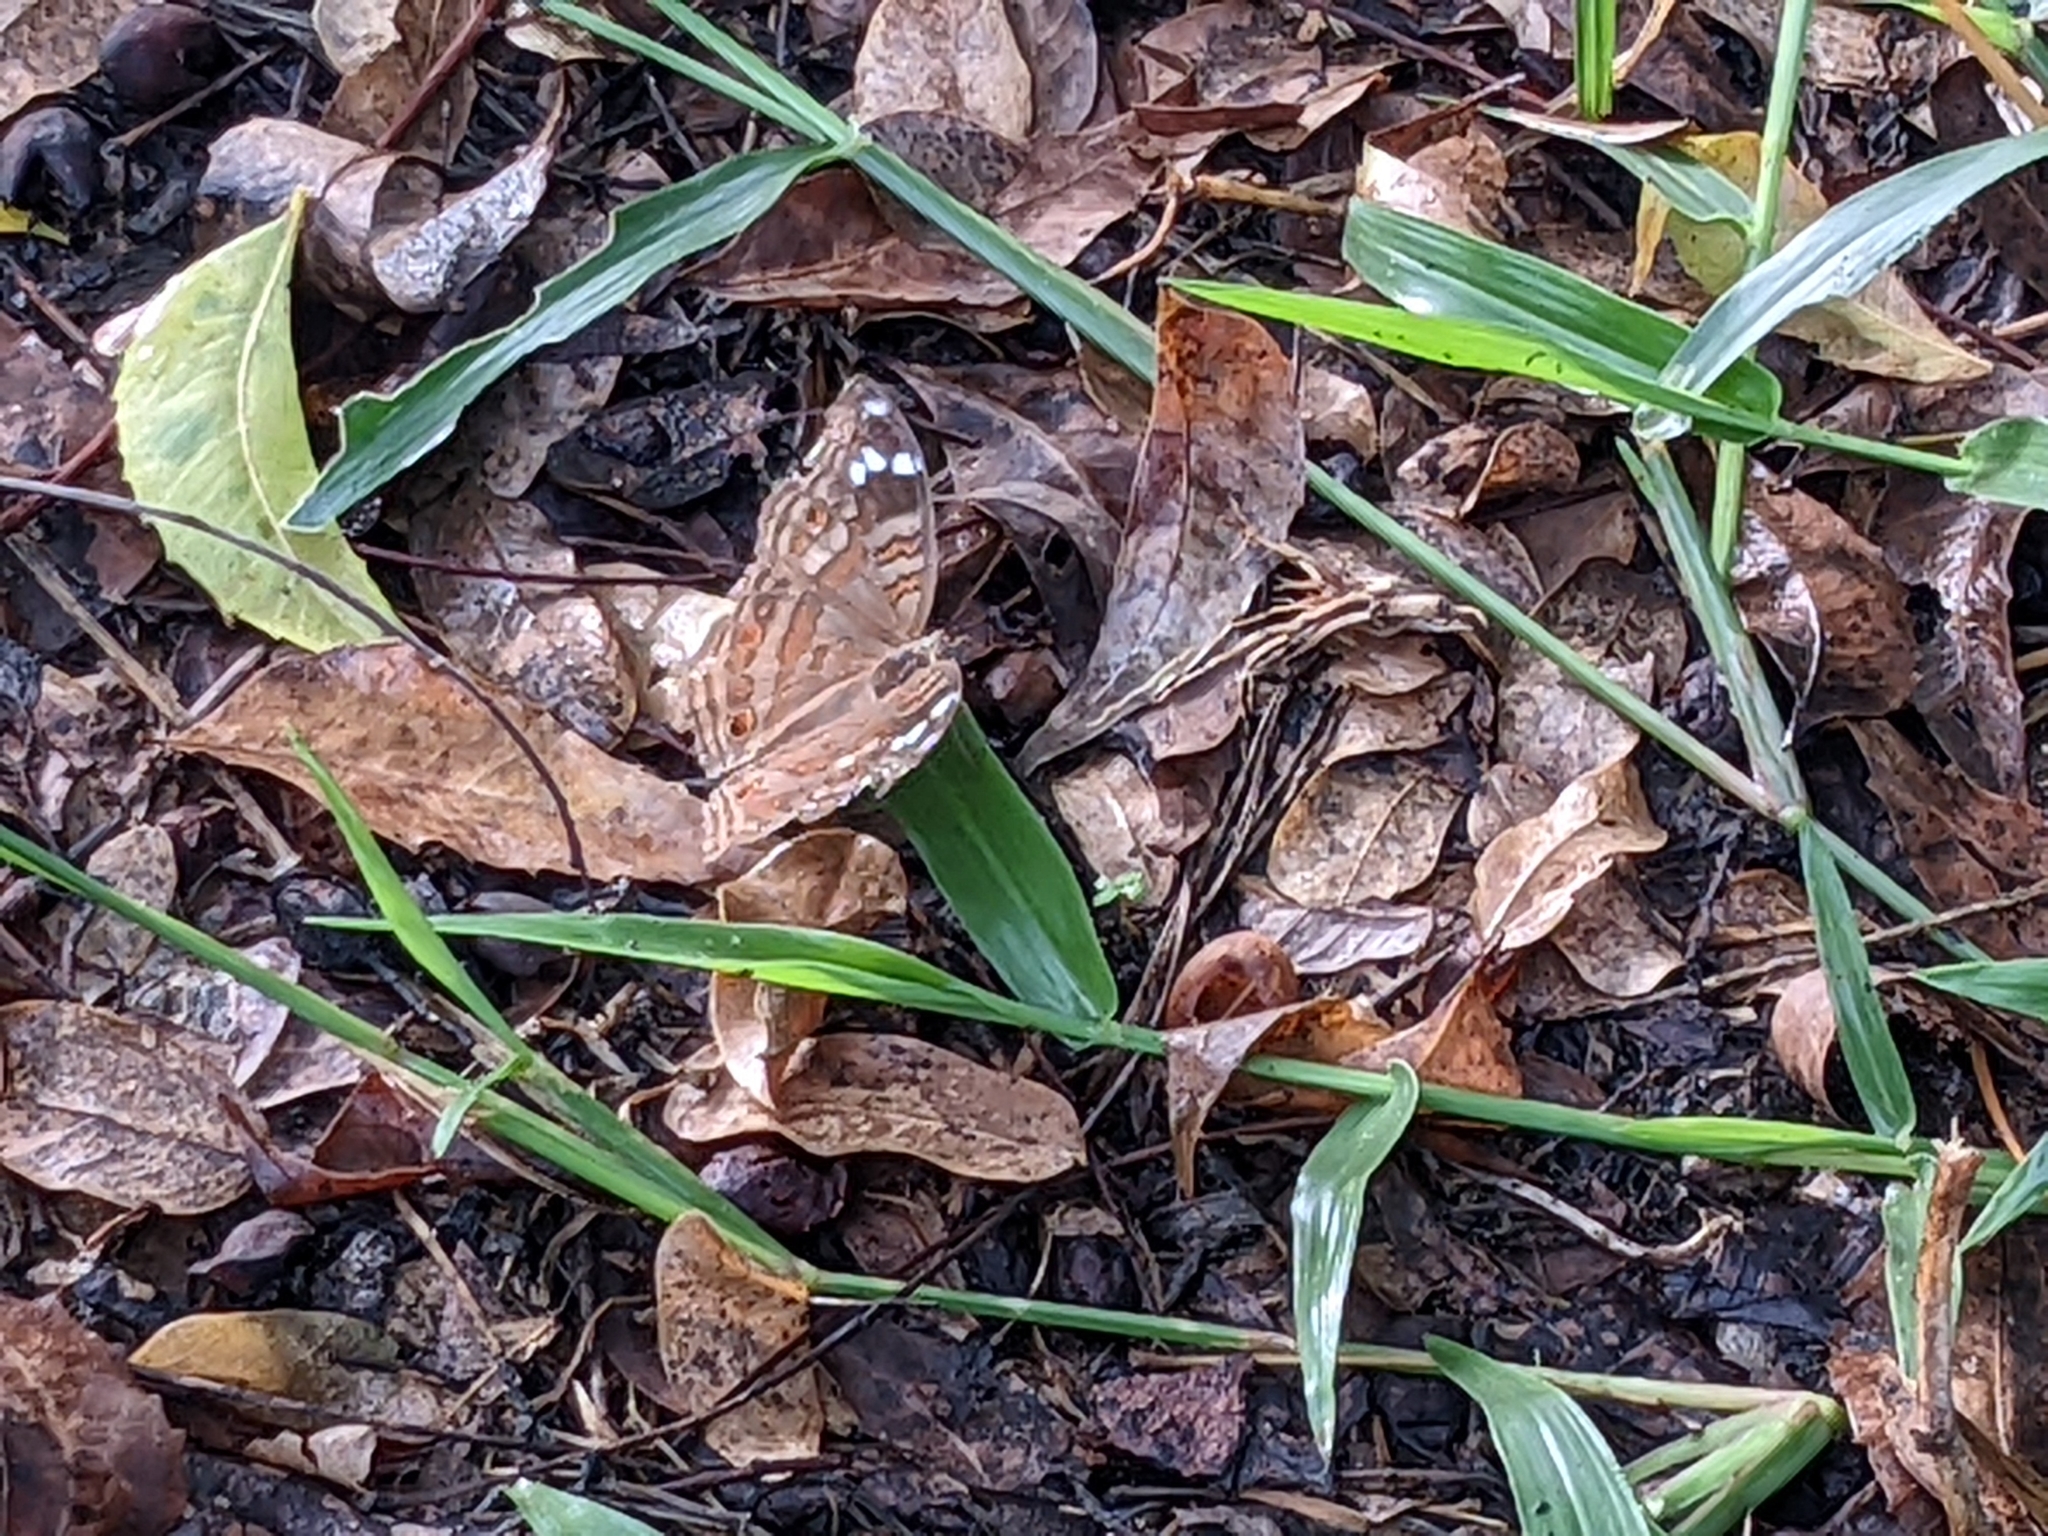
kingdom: Animalia
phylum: Arthropoda
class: Insecta
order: Lepidoptera
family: Nymphalidae
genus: Junonia
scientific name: Junonia natalica
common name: Brown pansy
